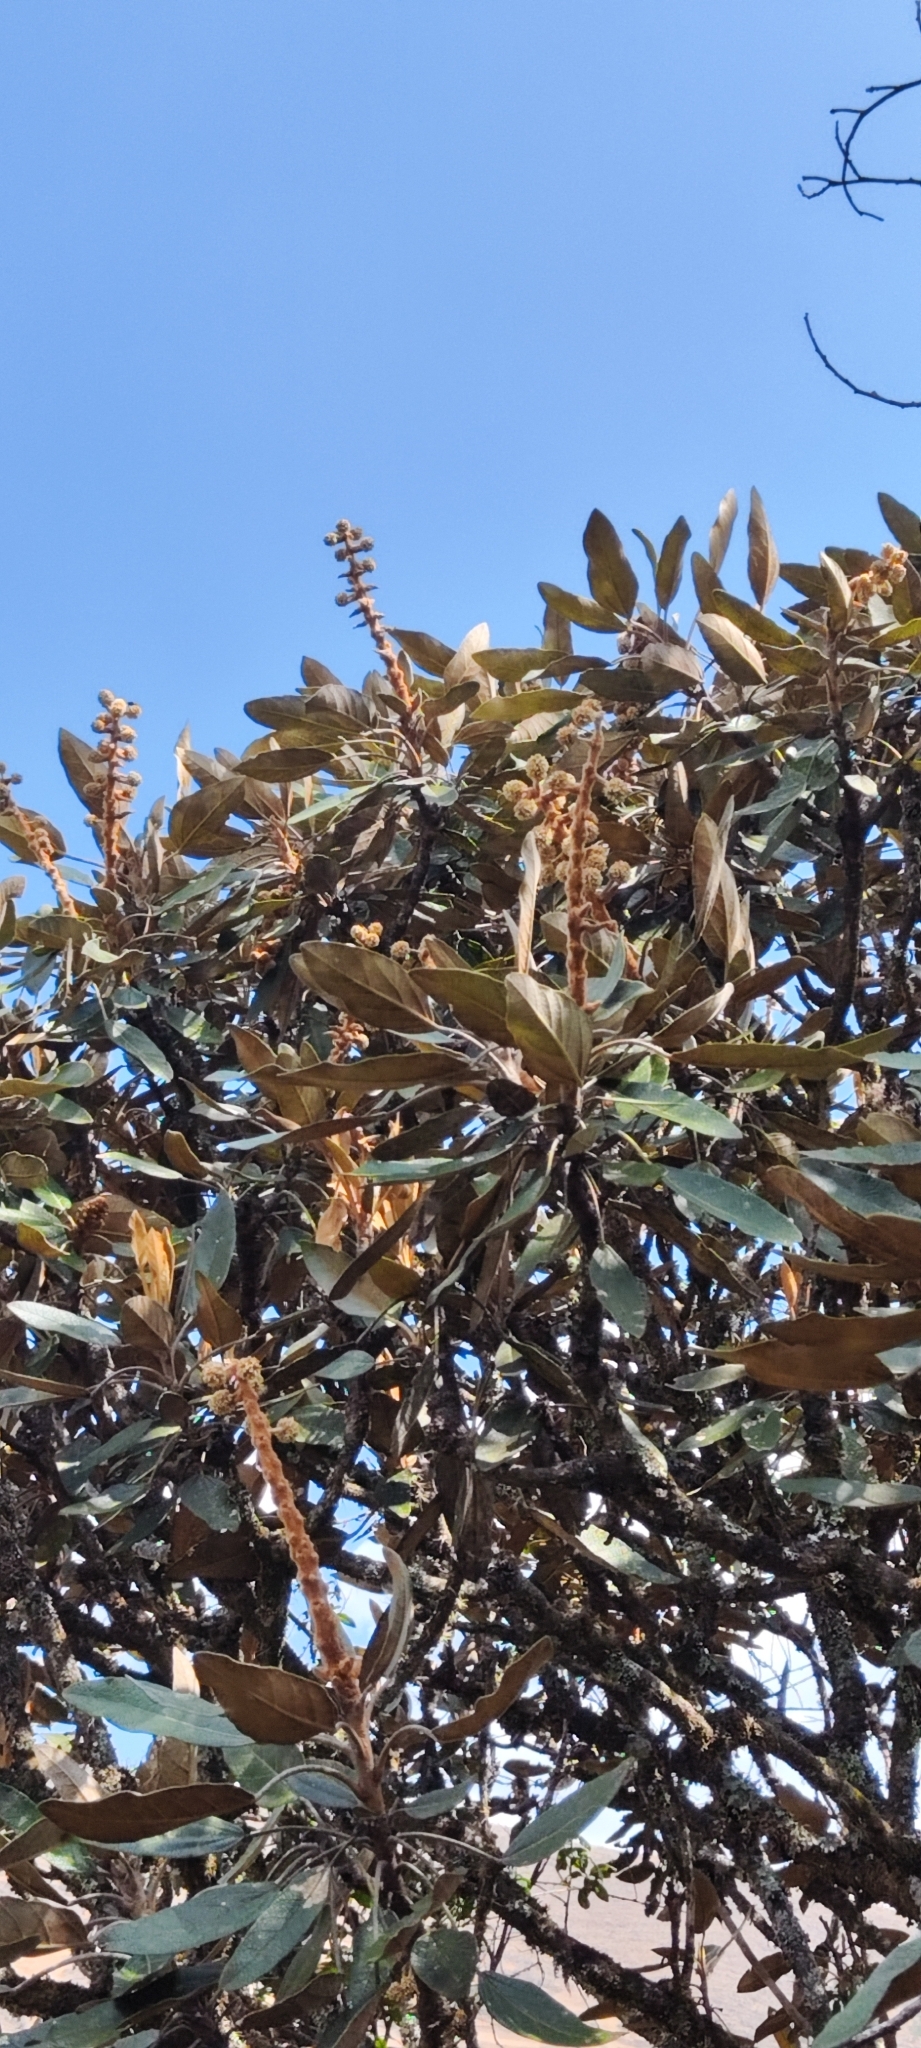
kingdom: Plantae
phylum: Tracheophyta
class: Magnoliopsida
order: Apiales
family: Araliaceae
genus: Oreopanax
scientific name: Oreopanax andreanus
